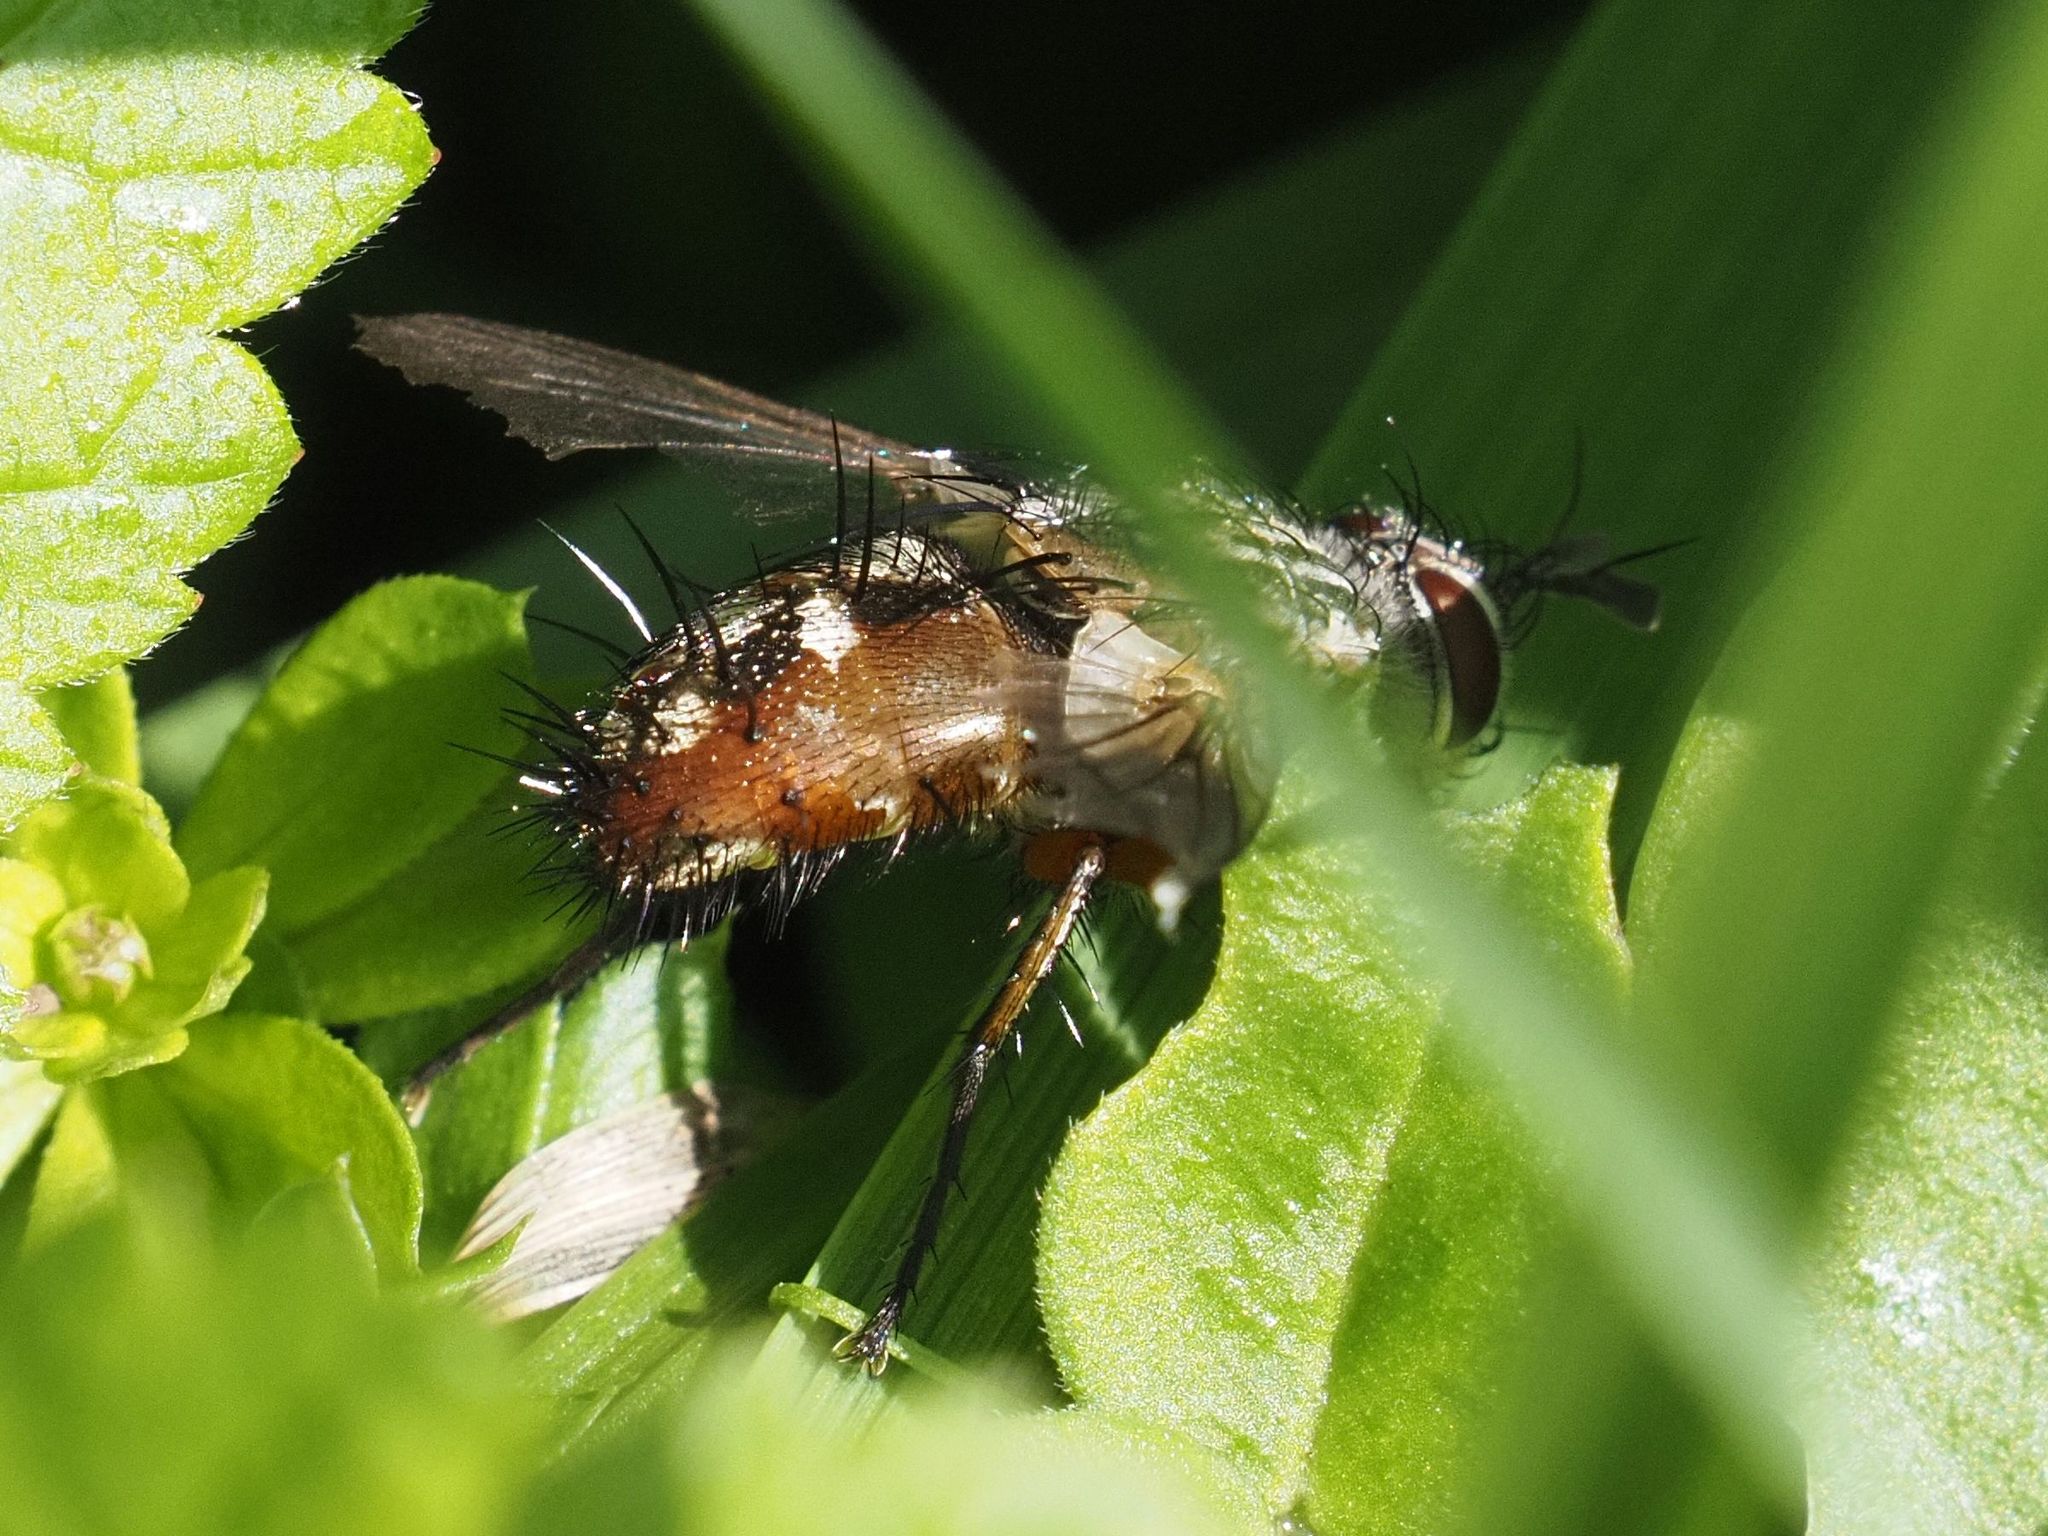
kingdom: Animalia
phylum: Arthropoda
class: Insecta
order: Diptera
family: Tachinidae
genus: Linnaemya
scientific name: Linnaemya vulpina
